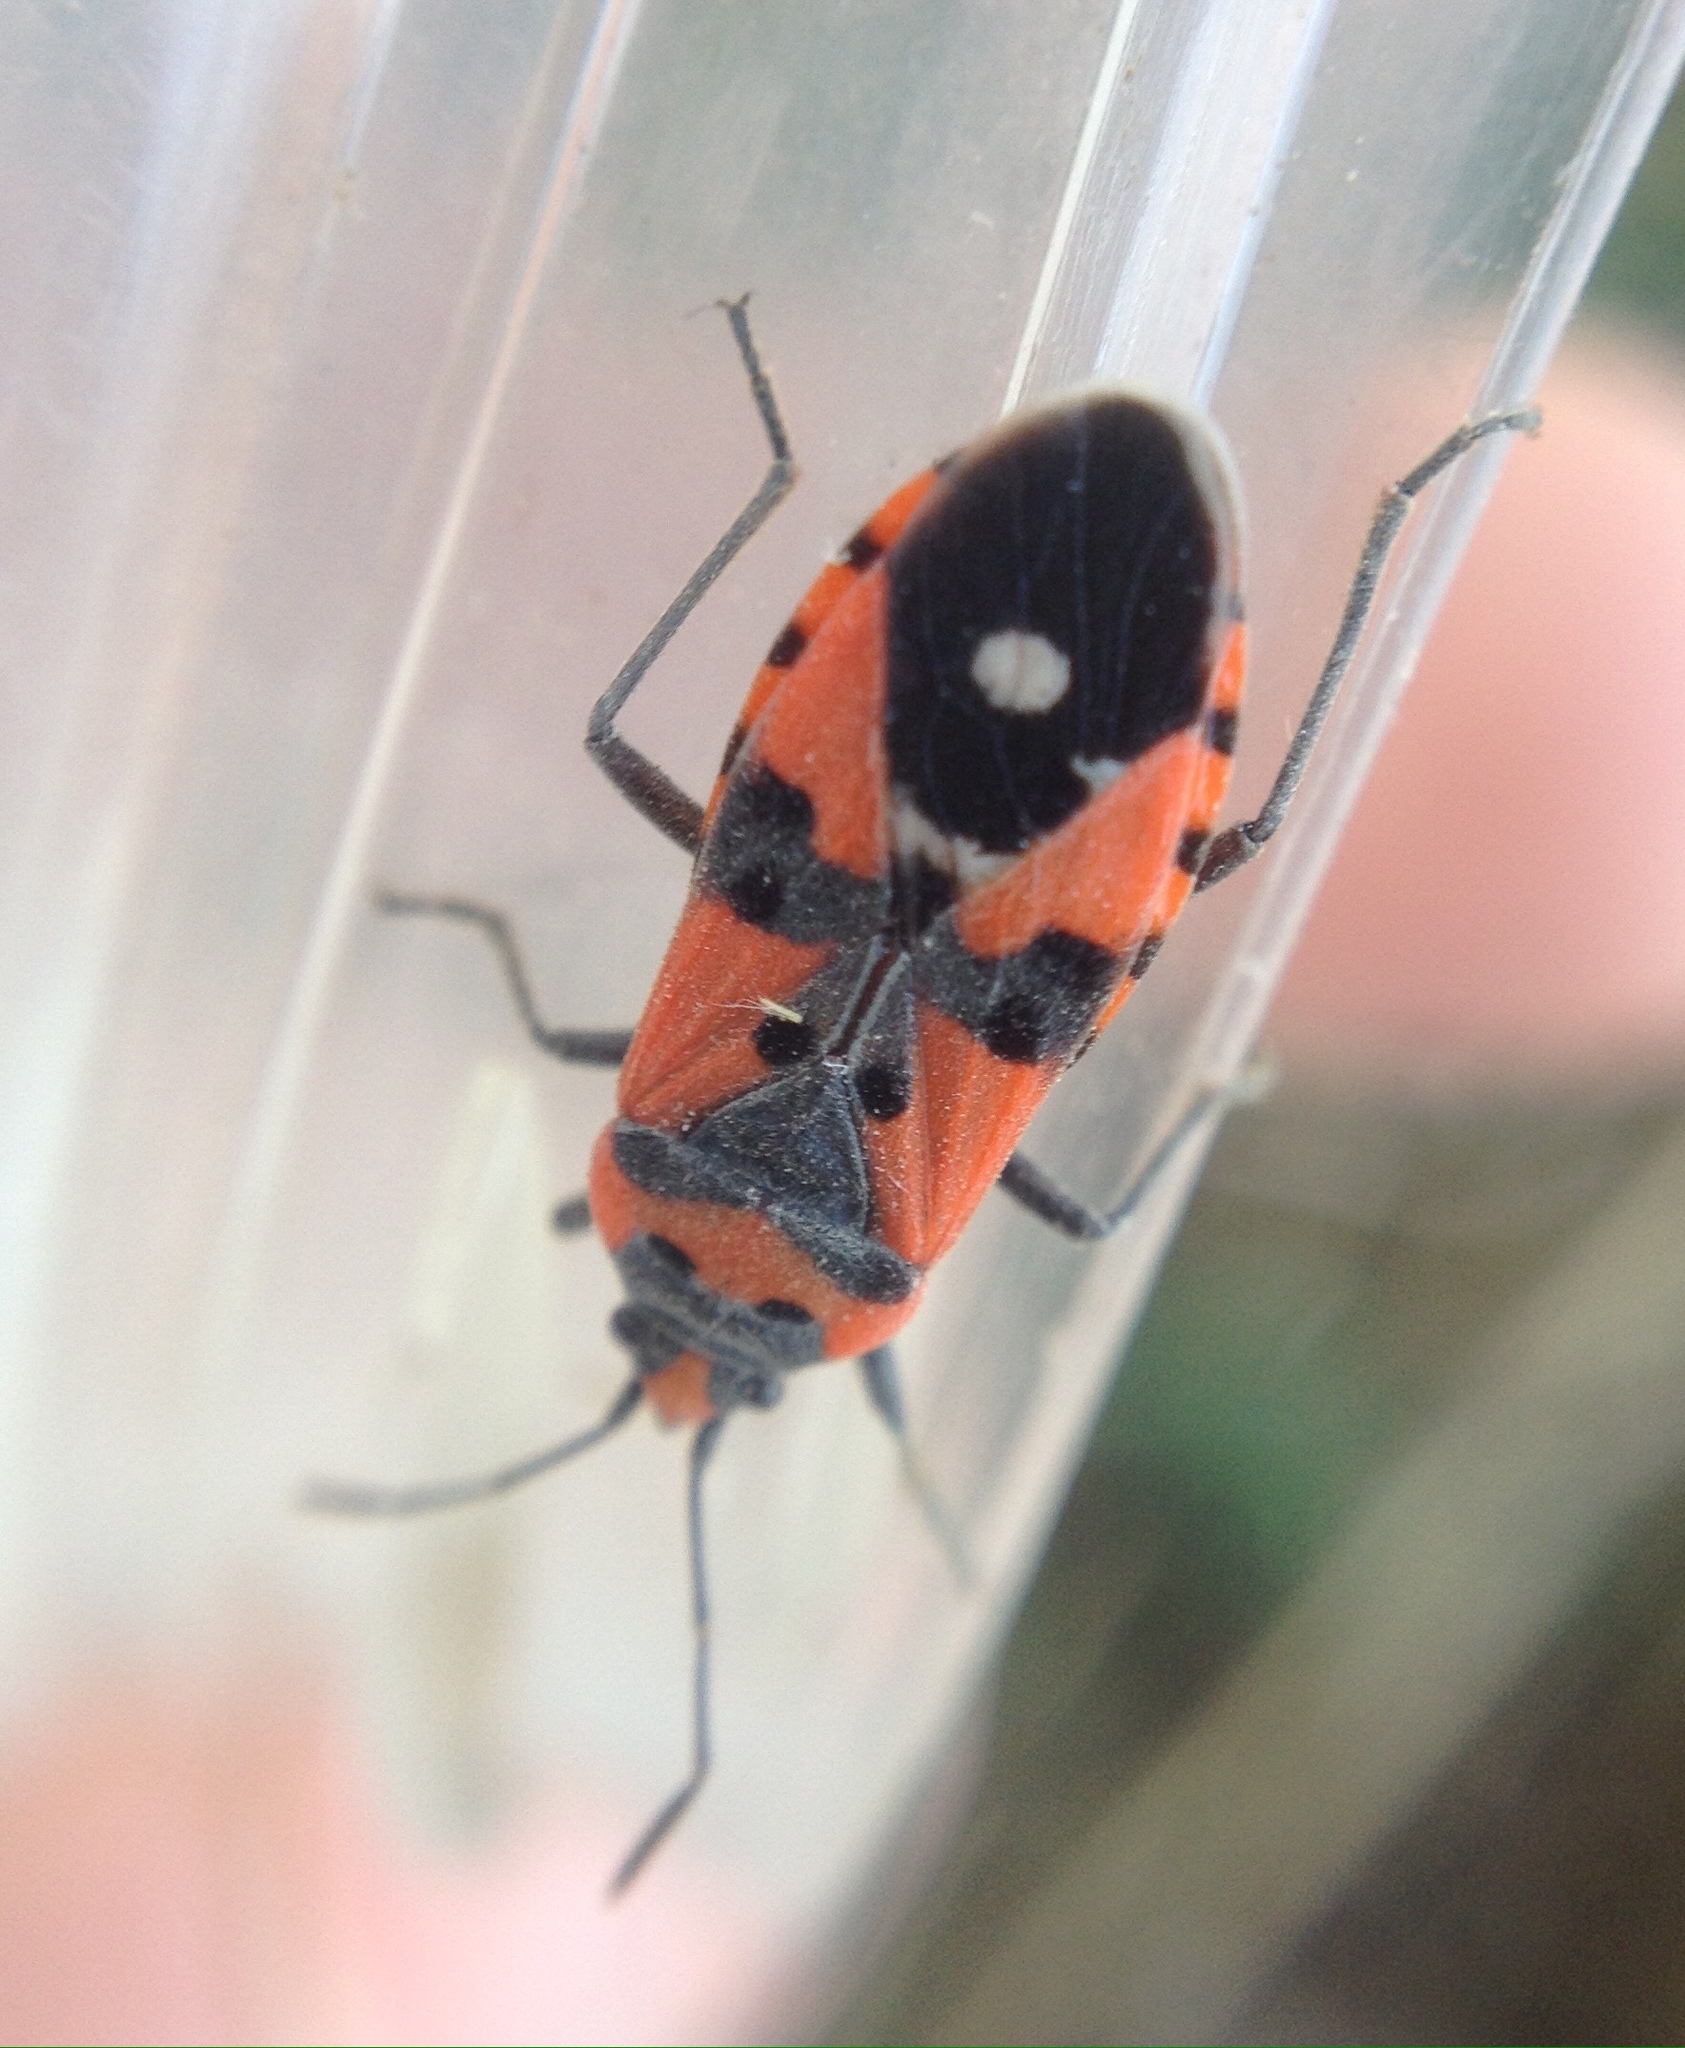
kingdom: Animalia
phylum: Arthropoda
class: Insecta
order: Hemiptera
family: Lygaeidae
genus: Lygaeus
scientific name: Lygaeus equestris
